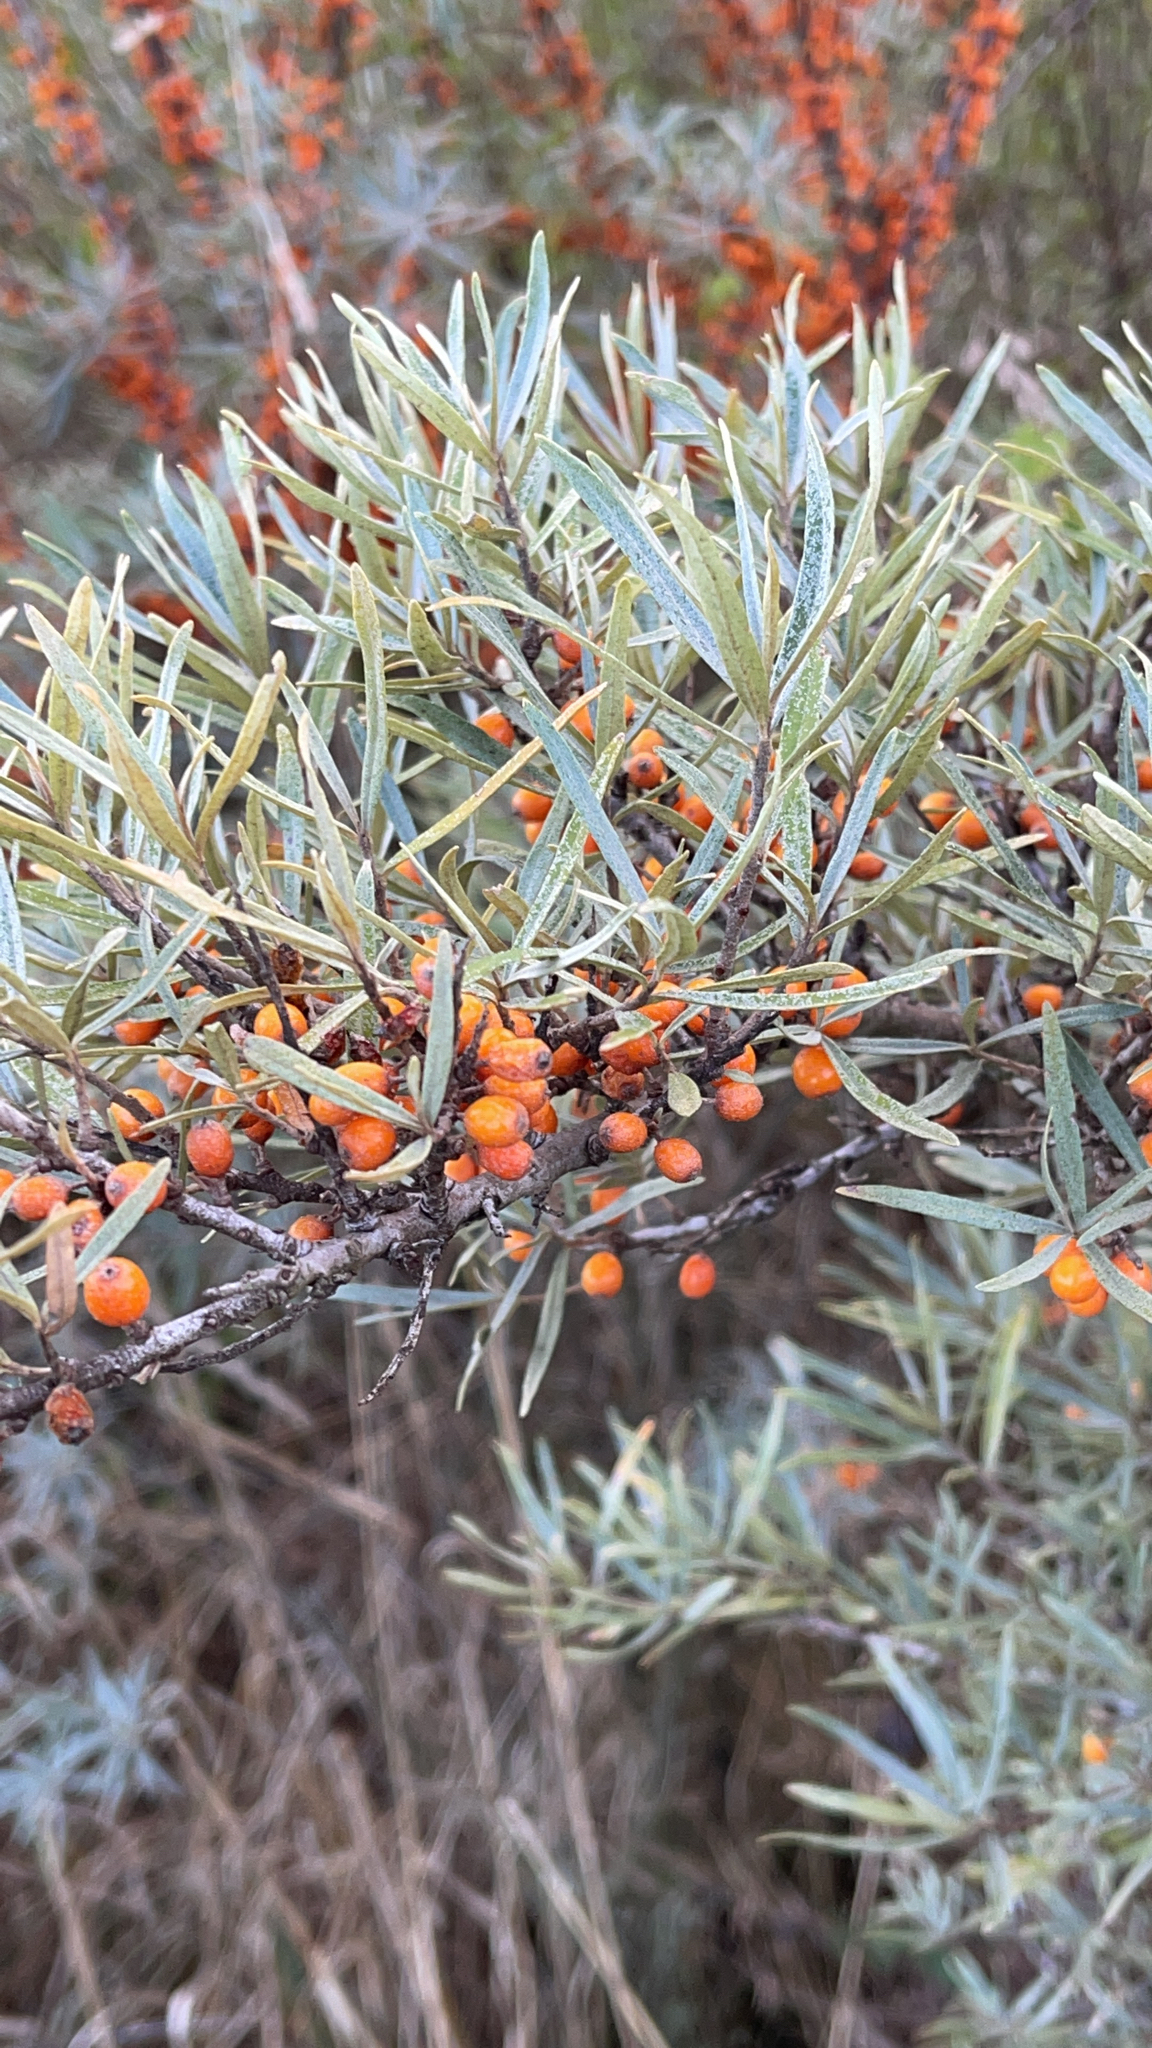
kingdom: Plantae
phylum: Tracheophyta
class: Magnoliopsida
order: Rosales
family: Elaeagnaceae
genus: Hippophae
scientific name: Hippophae rhamnoides
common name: Sea-buckthorn
